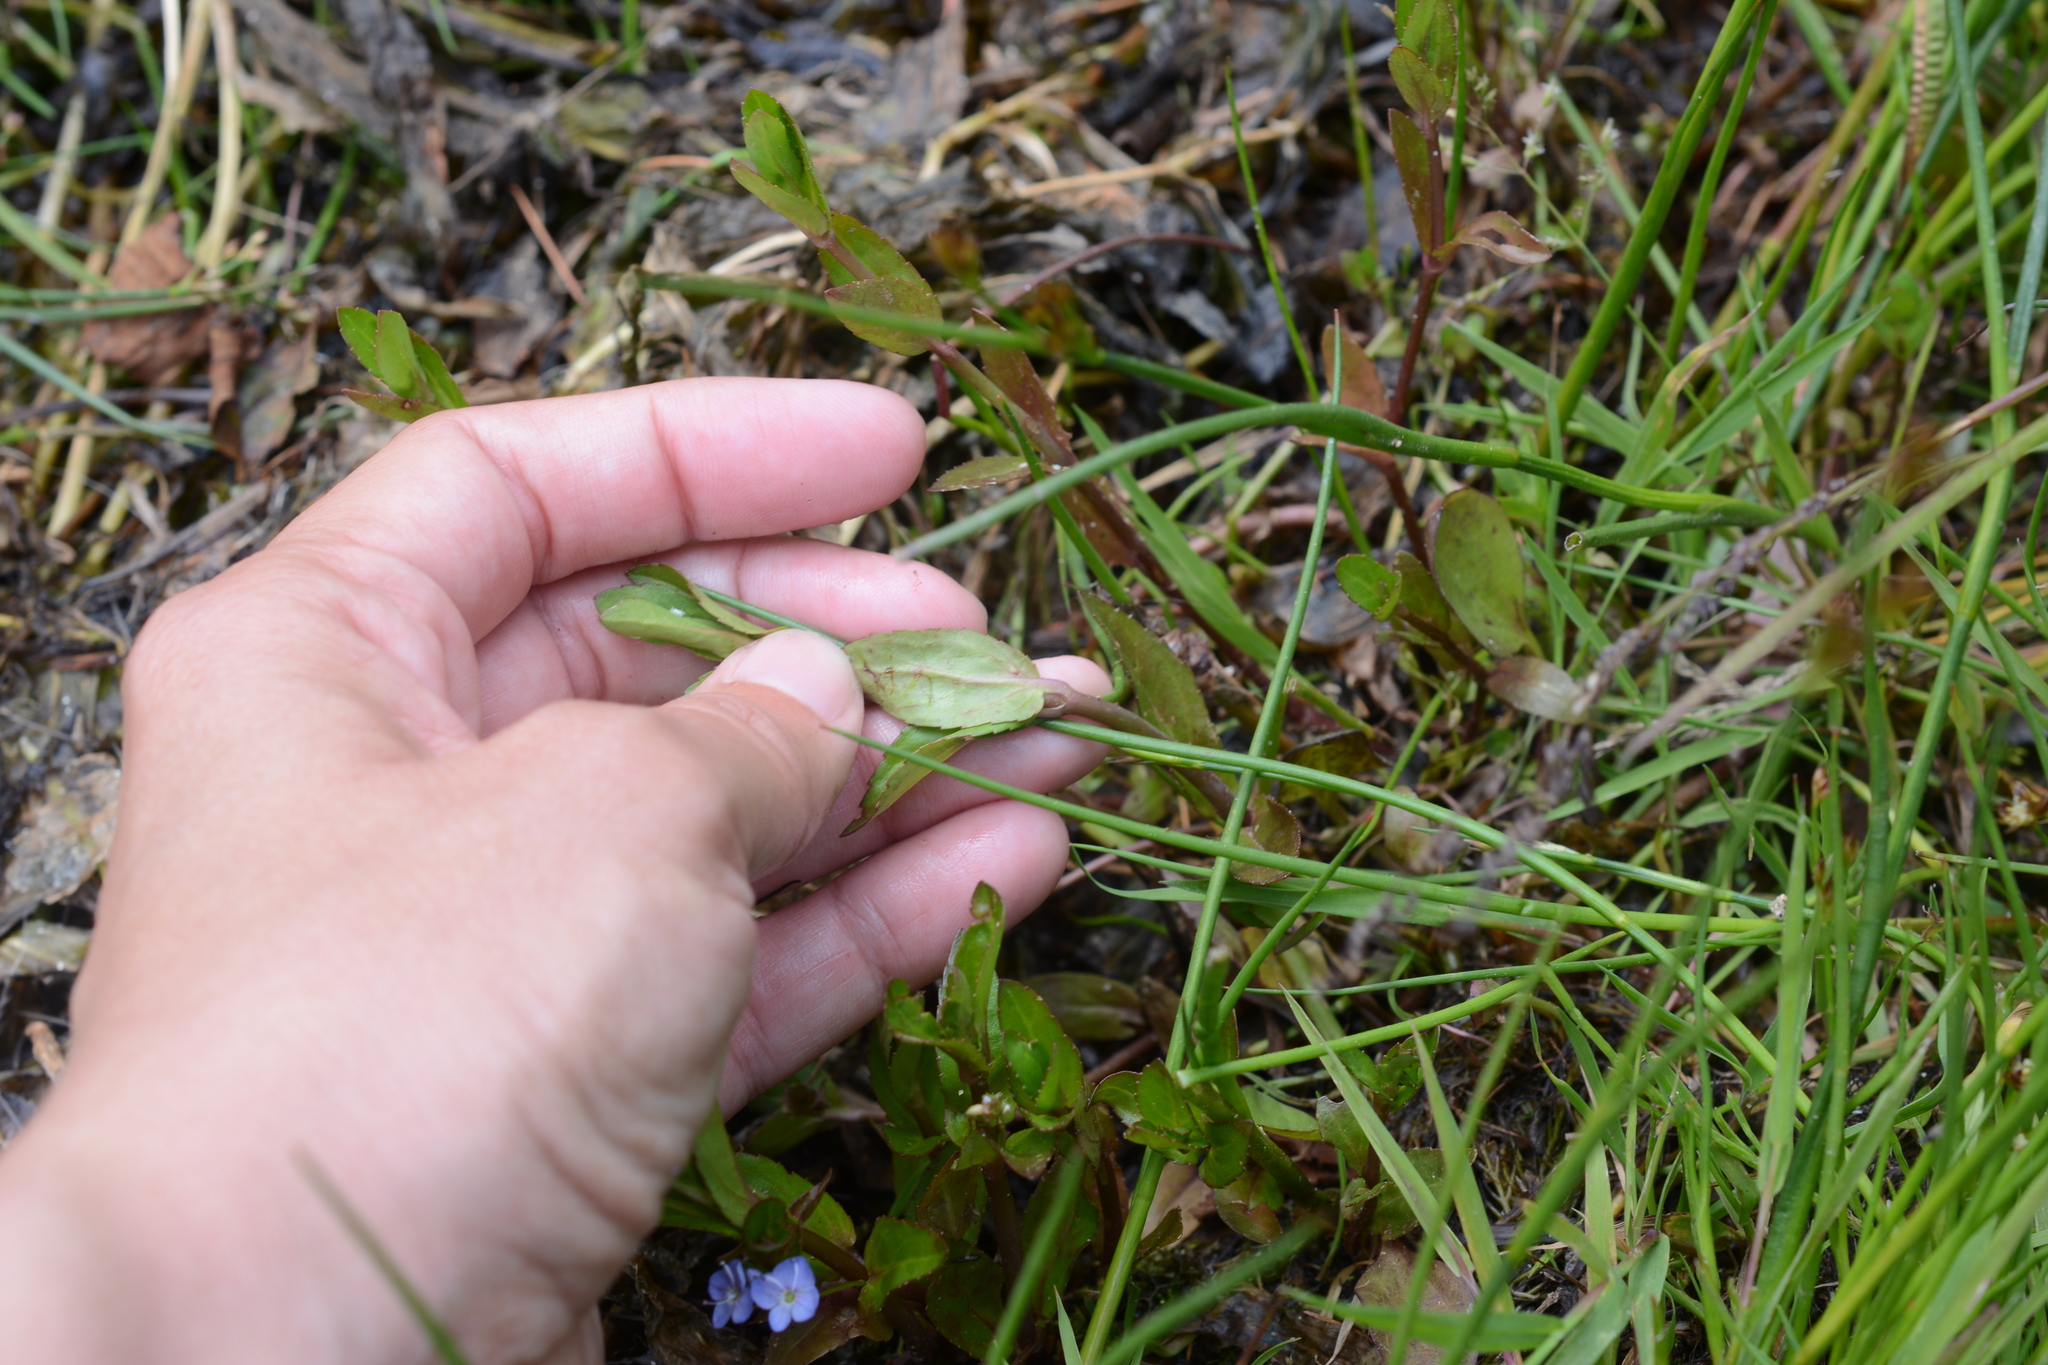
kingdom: Plantae
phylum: Tracheophyta
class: Magnoliopsida
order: Lamiales
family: Plantaginaceae
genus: Veronica
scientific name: Veronica americana
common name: American brooklime
